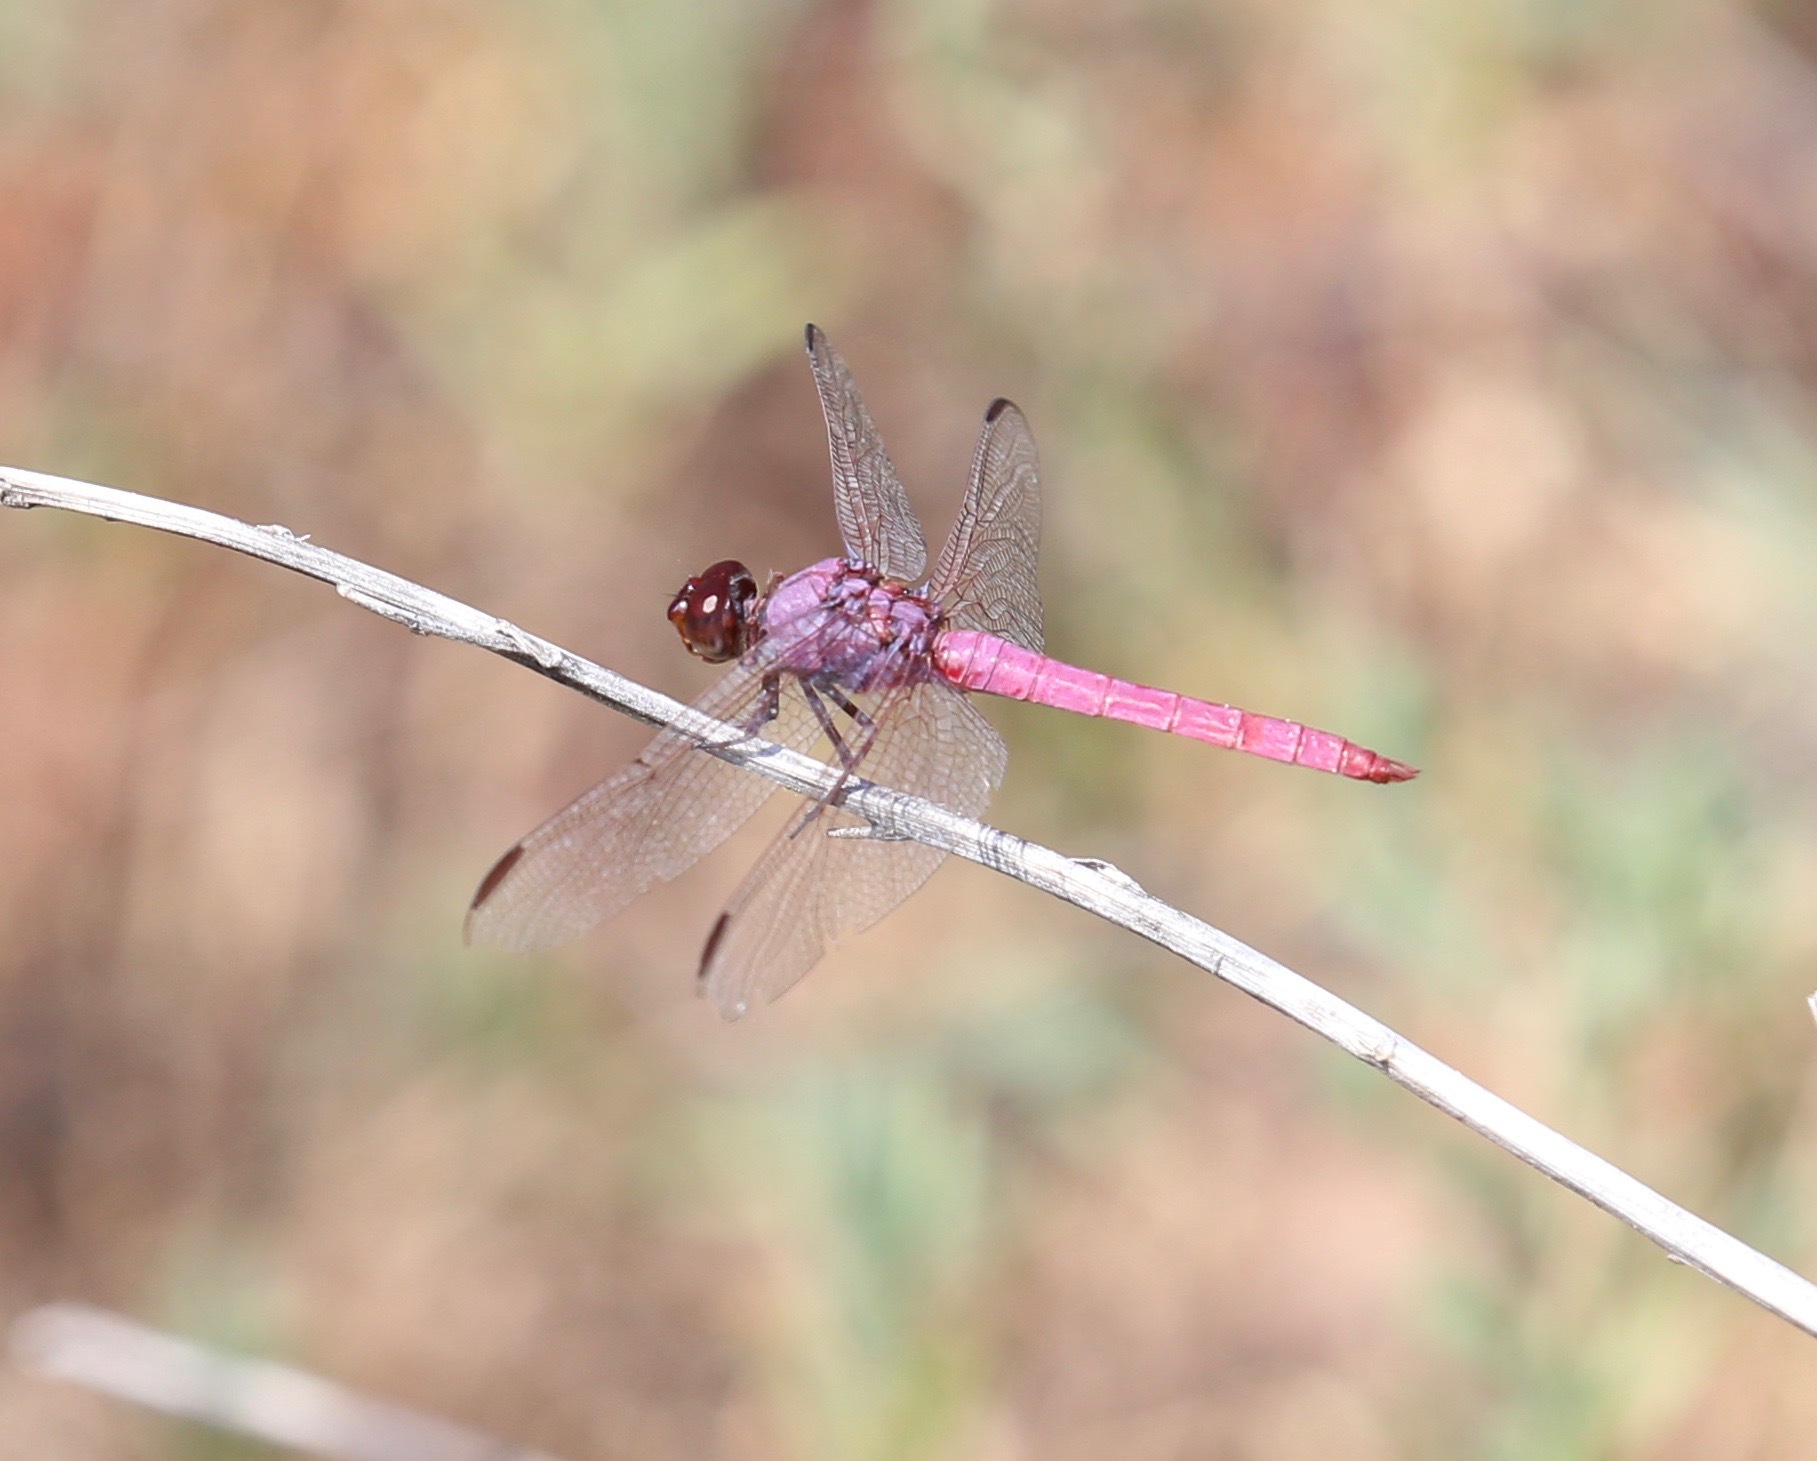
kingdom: Animalia
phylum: Arthropoda
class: Insecta
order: Odonata
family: Libellulidae
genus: Orthemis
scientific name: Orthemis ferruginea
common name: Roseate skimmer
